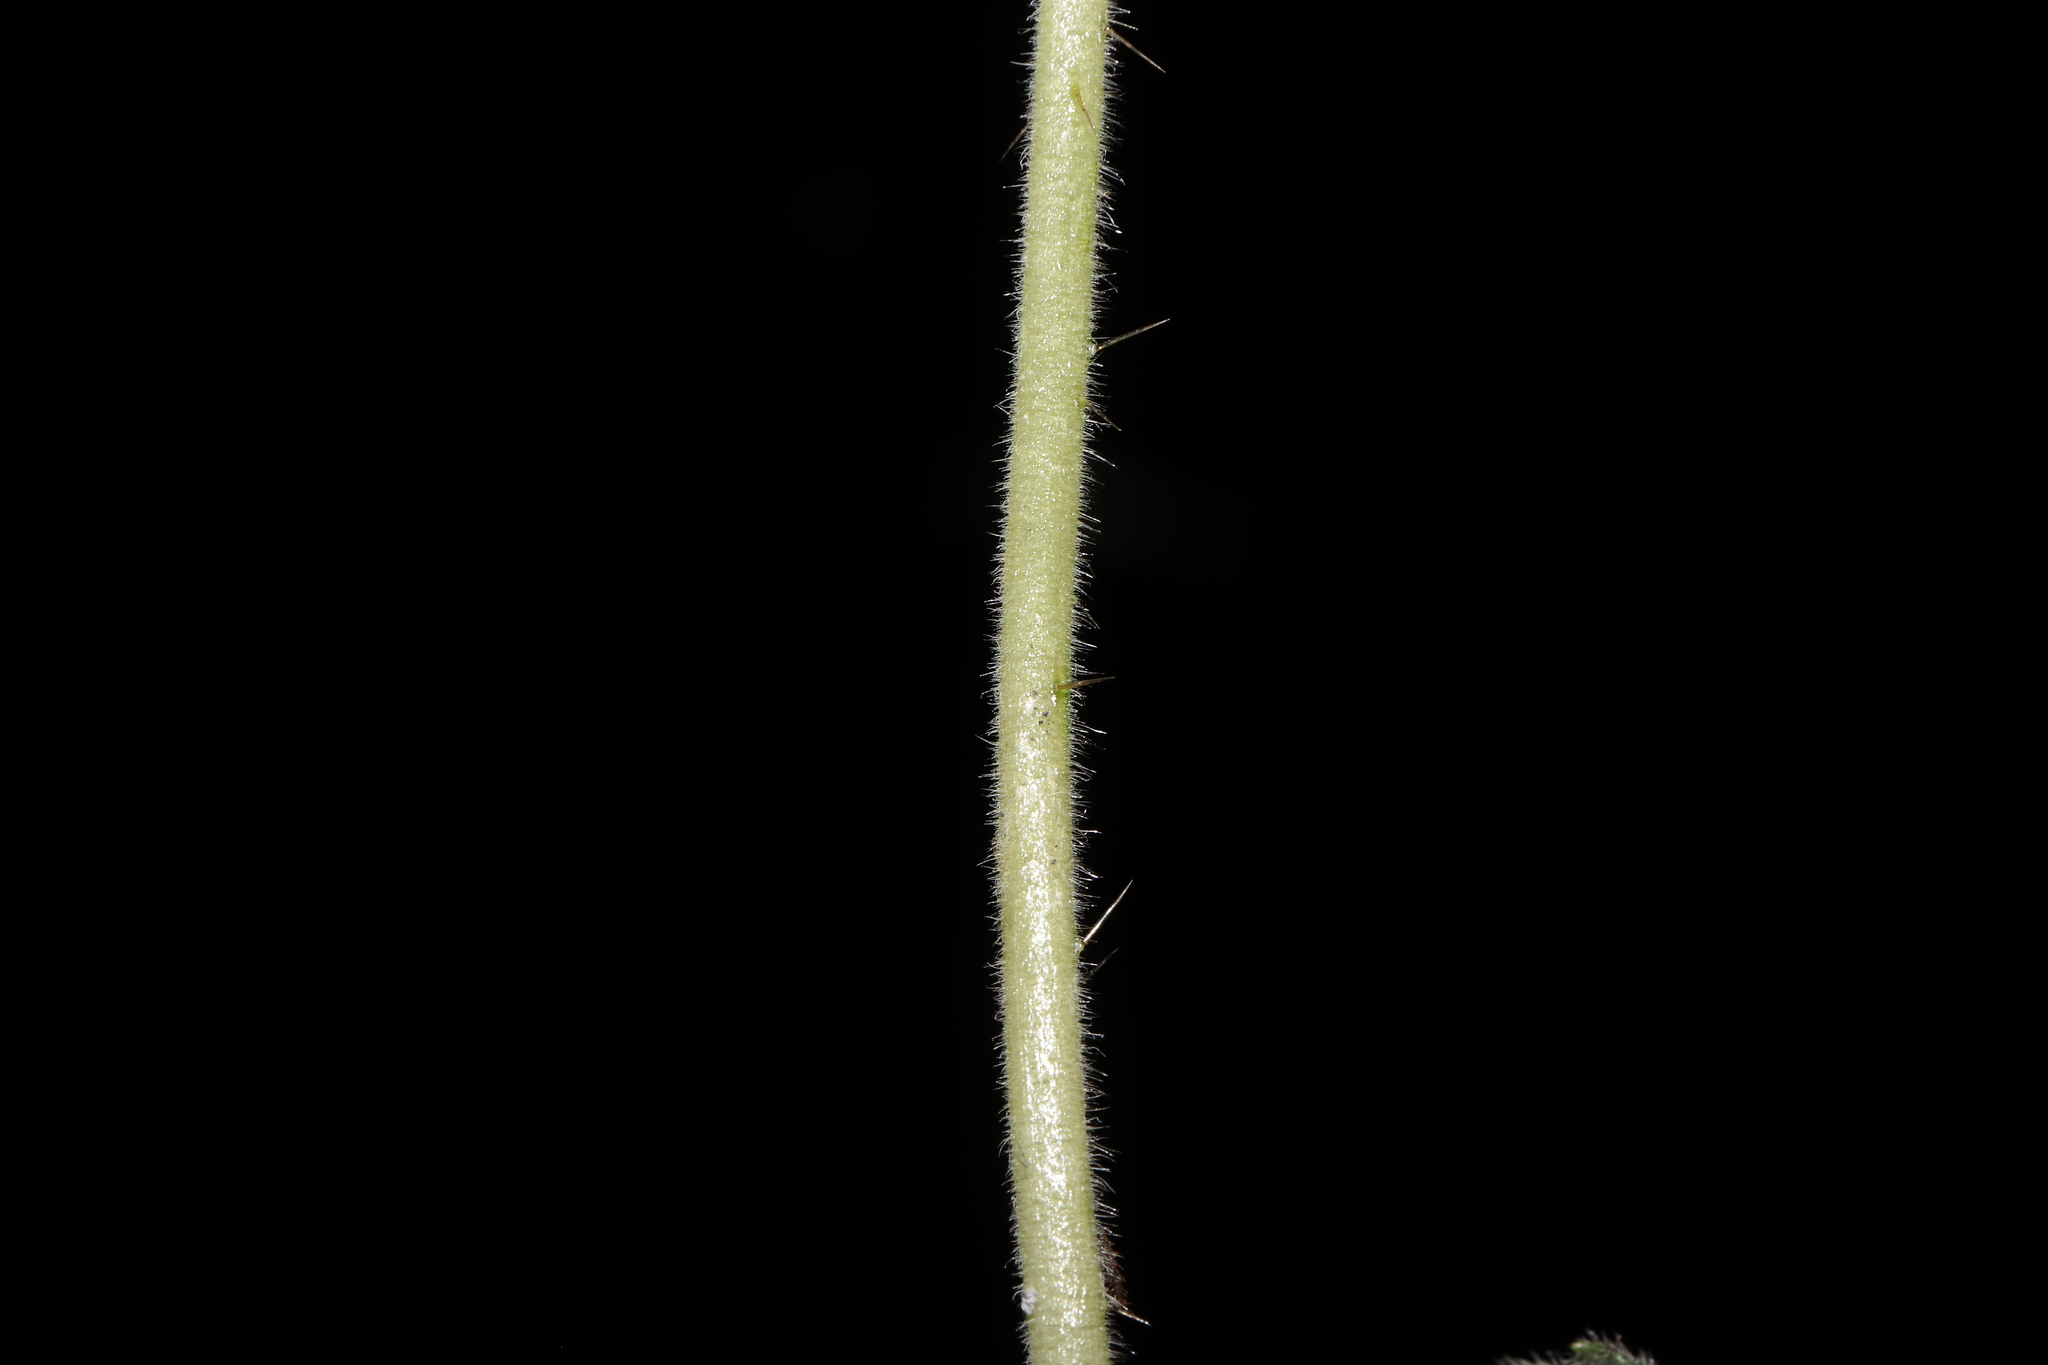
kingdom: Plantae
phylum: Tracheophyta
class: Magnoliopsida
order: Cornales
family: Loasaceae
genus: Nasa
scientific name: Nasa ranunculifolia
